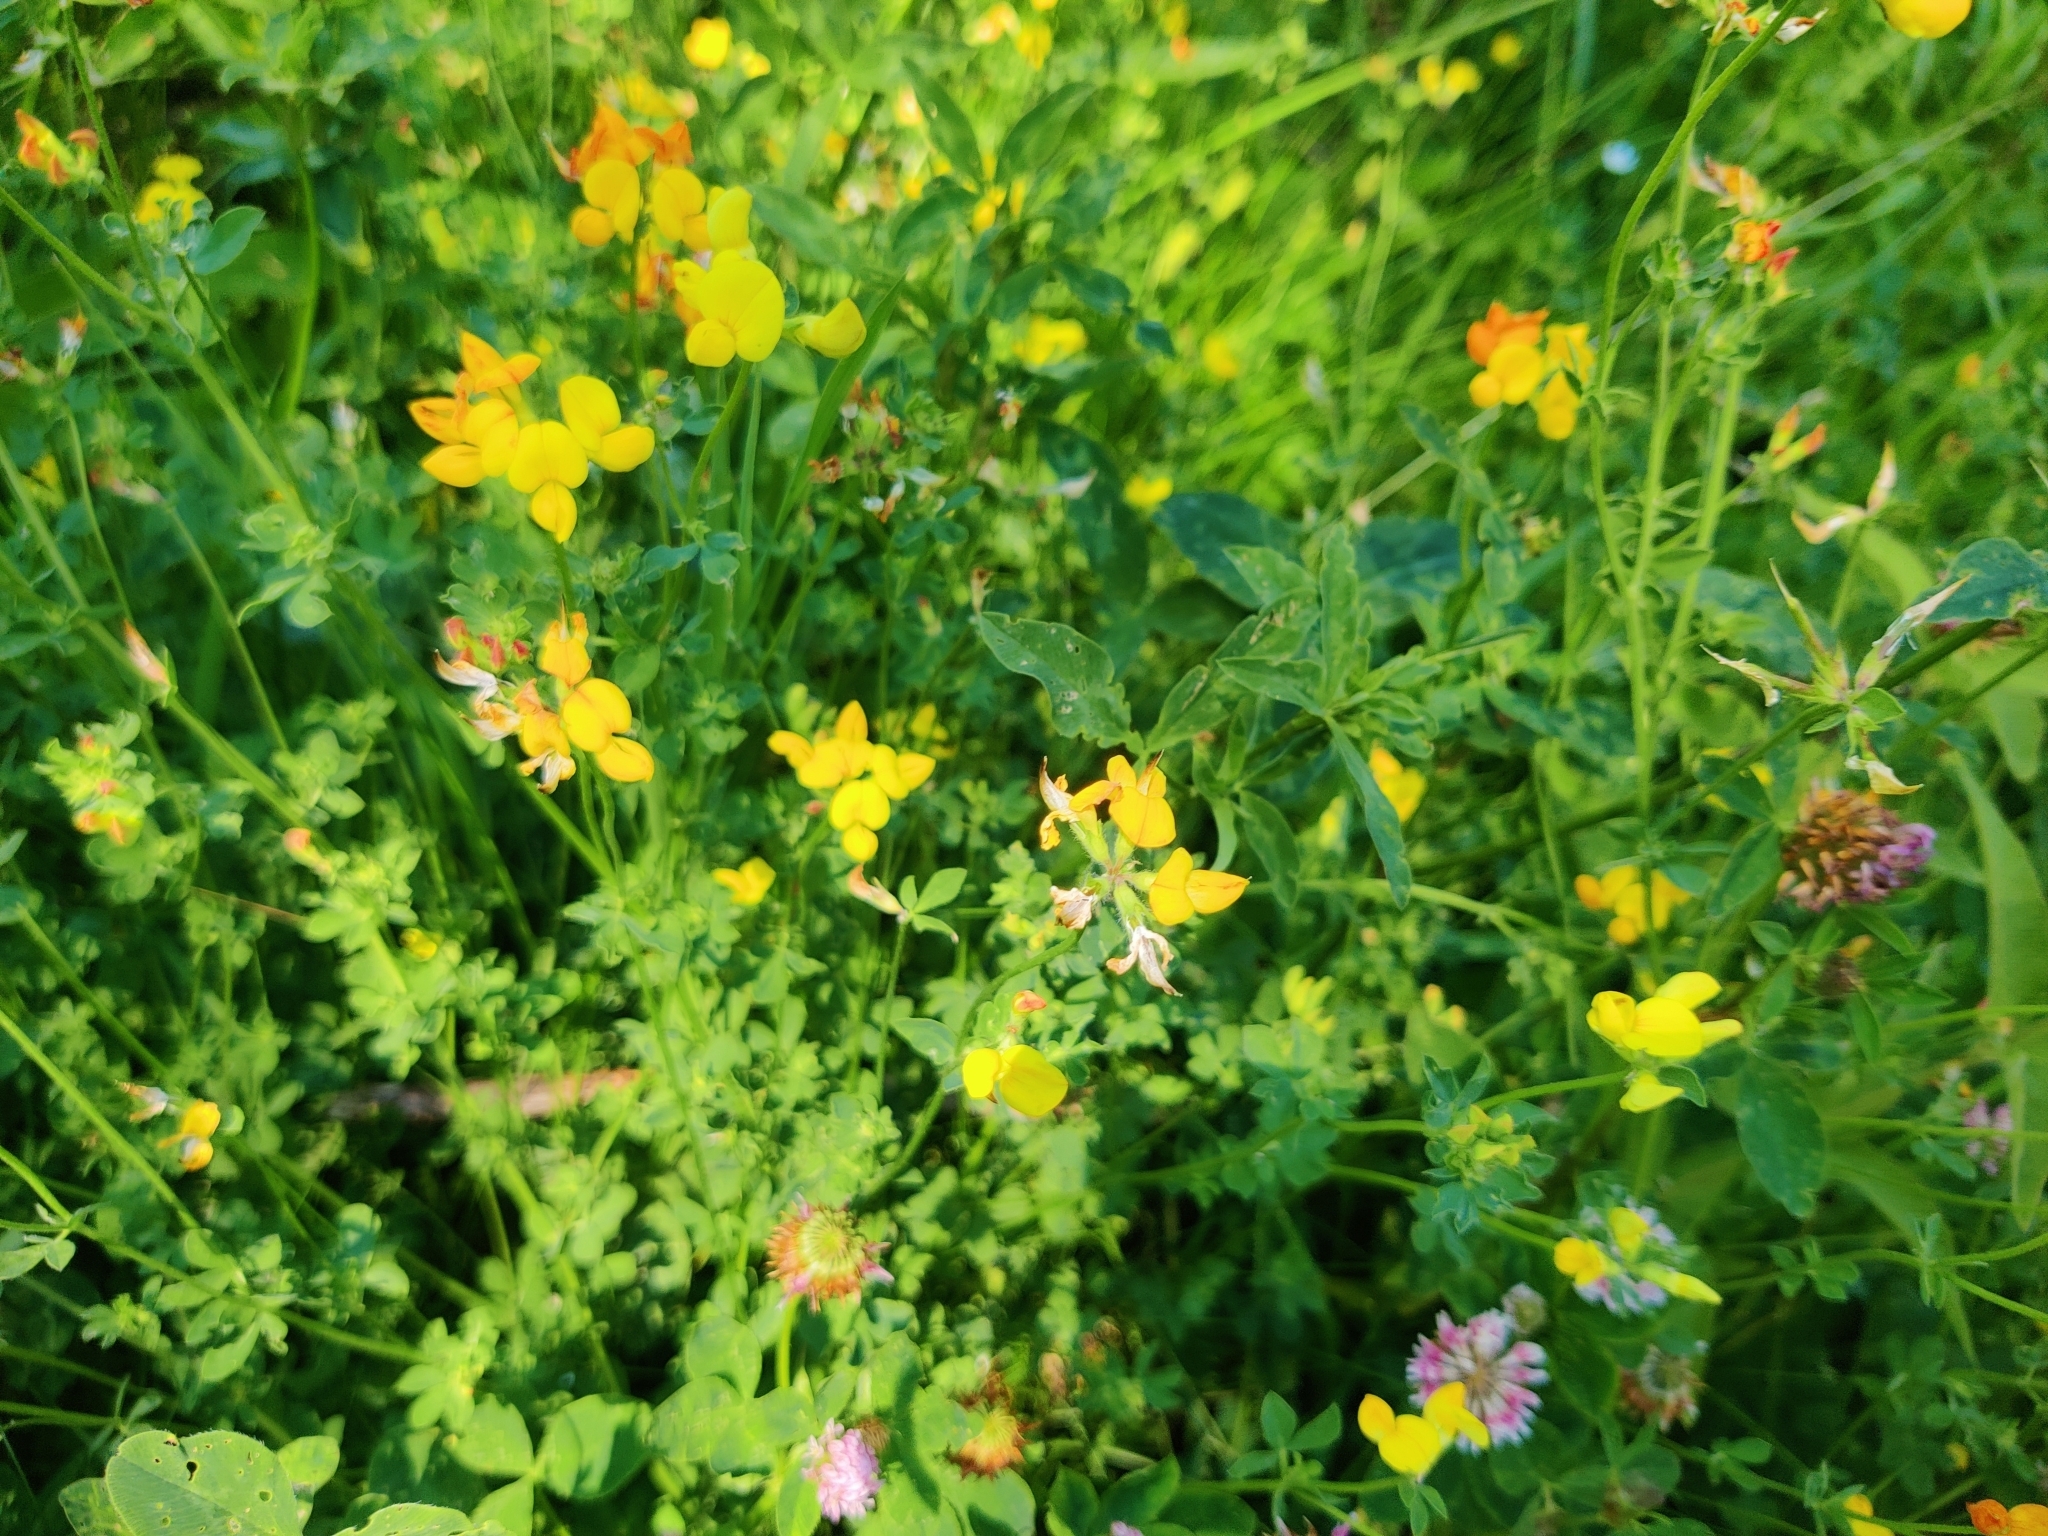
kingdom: Plantae
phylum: Tracheophyta
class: Magnoliopsida
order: Fabales
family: Fabaceae
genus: Lotus
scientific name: Lotus corniculatus
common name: Common bird's-foot-trefoil
